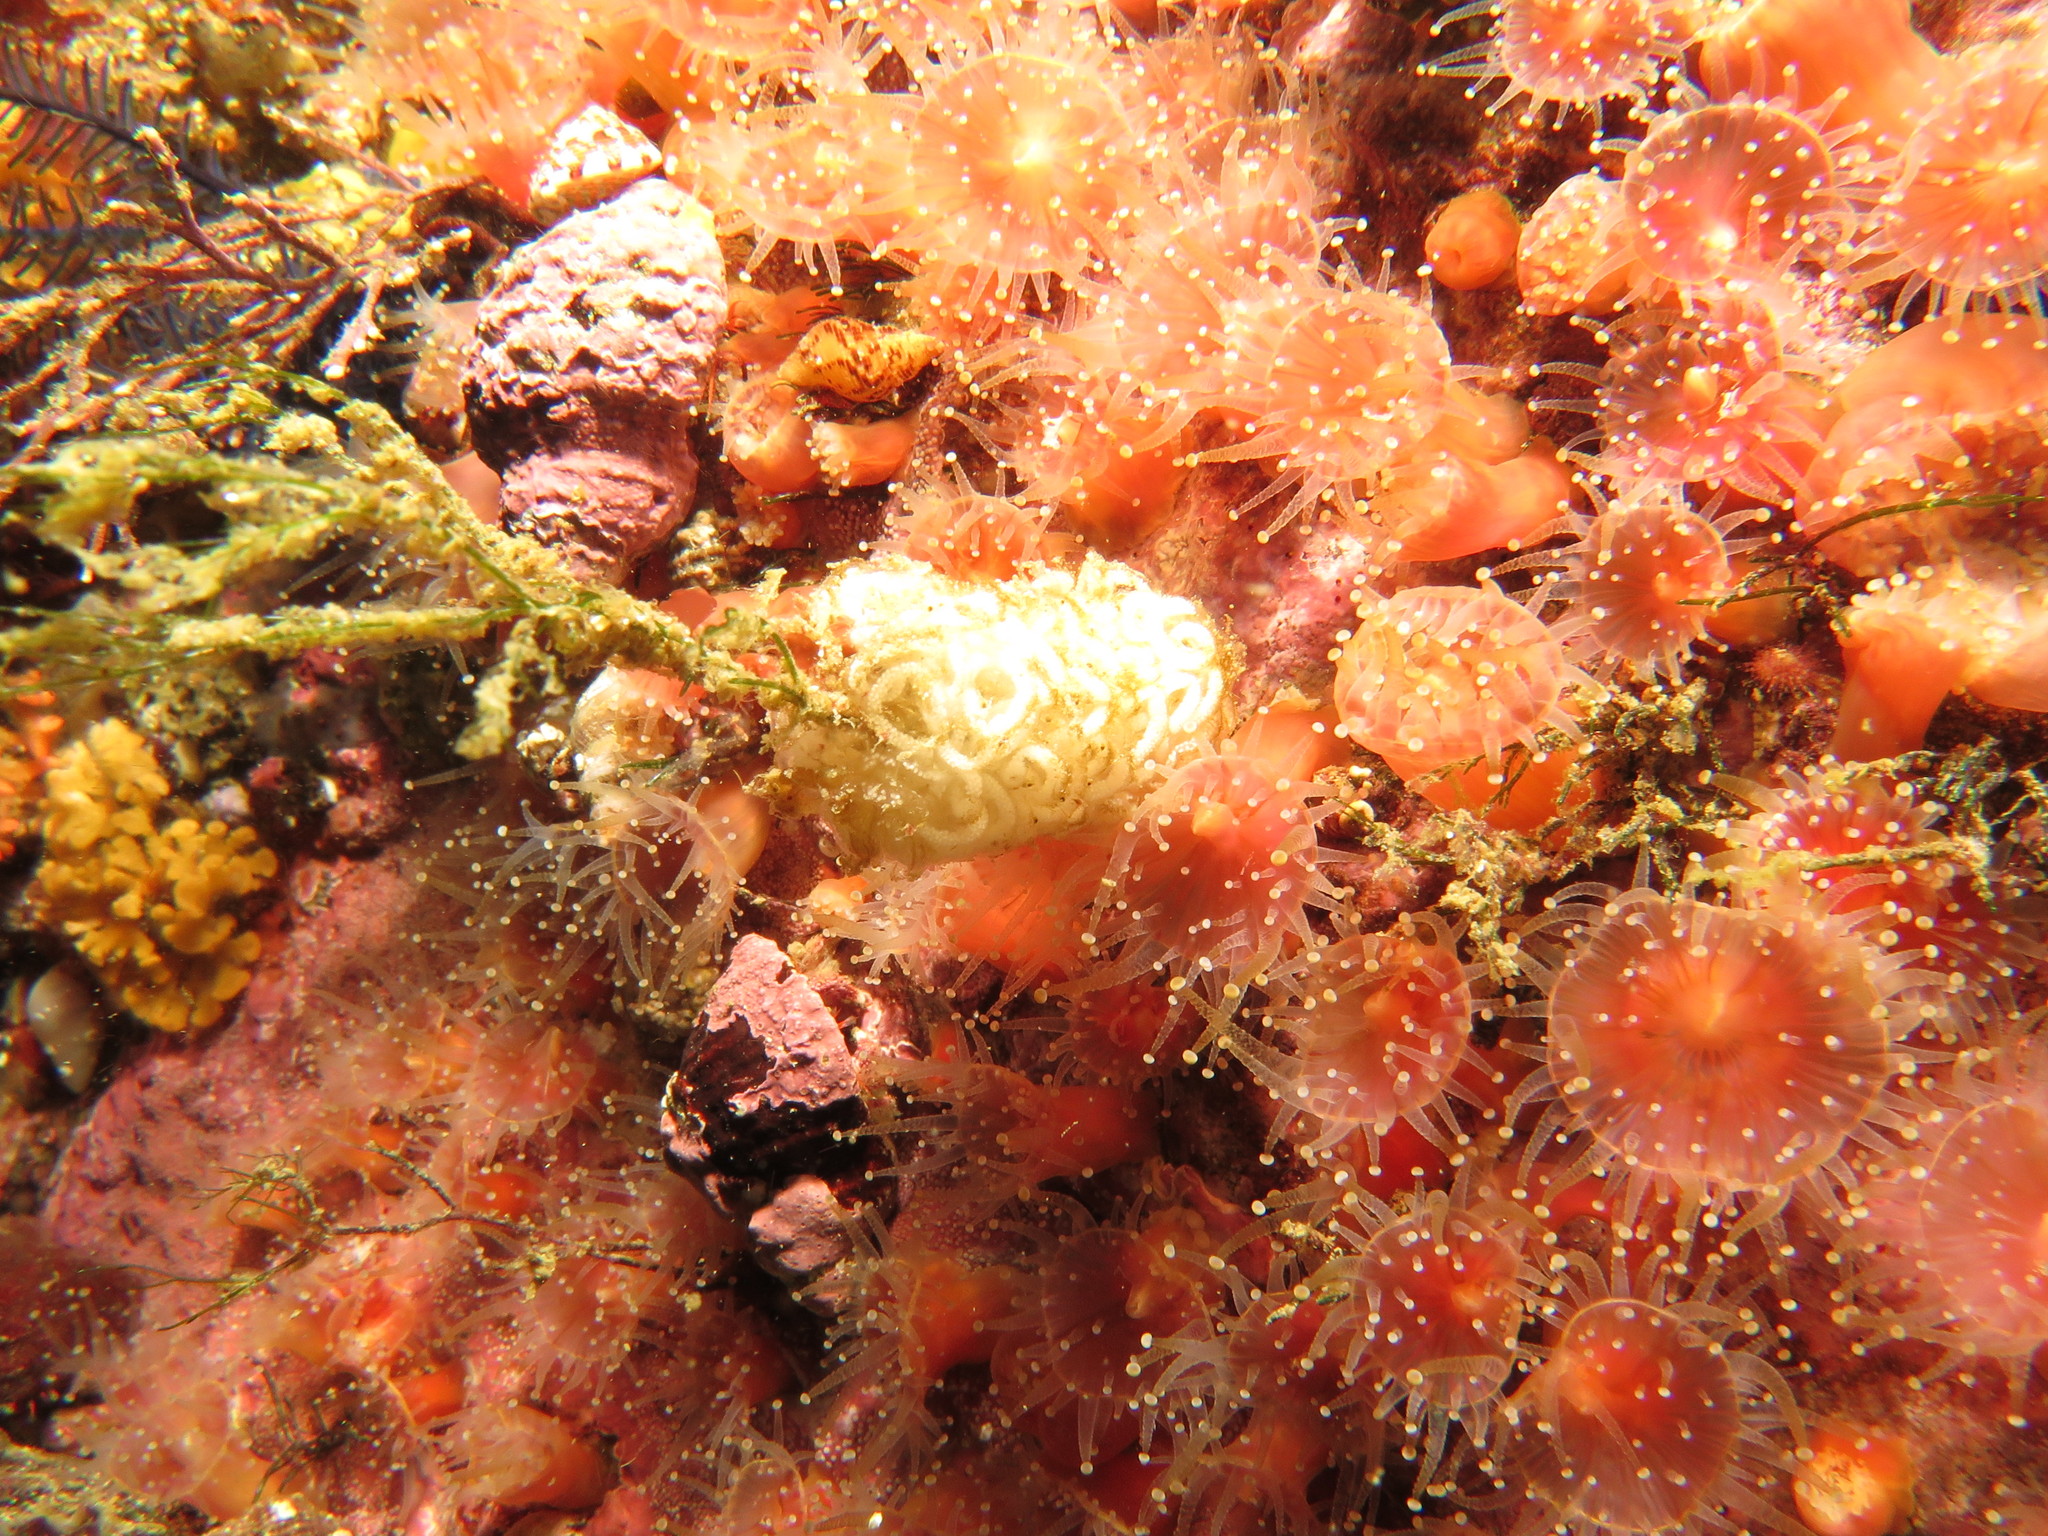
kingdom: Animalia
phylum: Mollusca
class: Gastropoda
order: Nudibranchia
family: Janolidae
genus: Bonisa
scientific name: Bonisa nakaza
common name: Gas flame nudibranch
